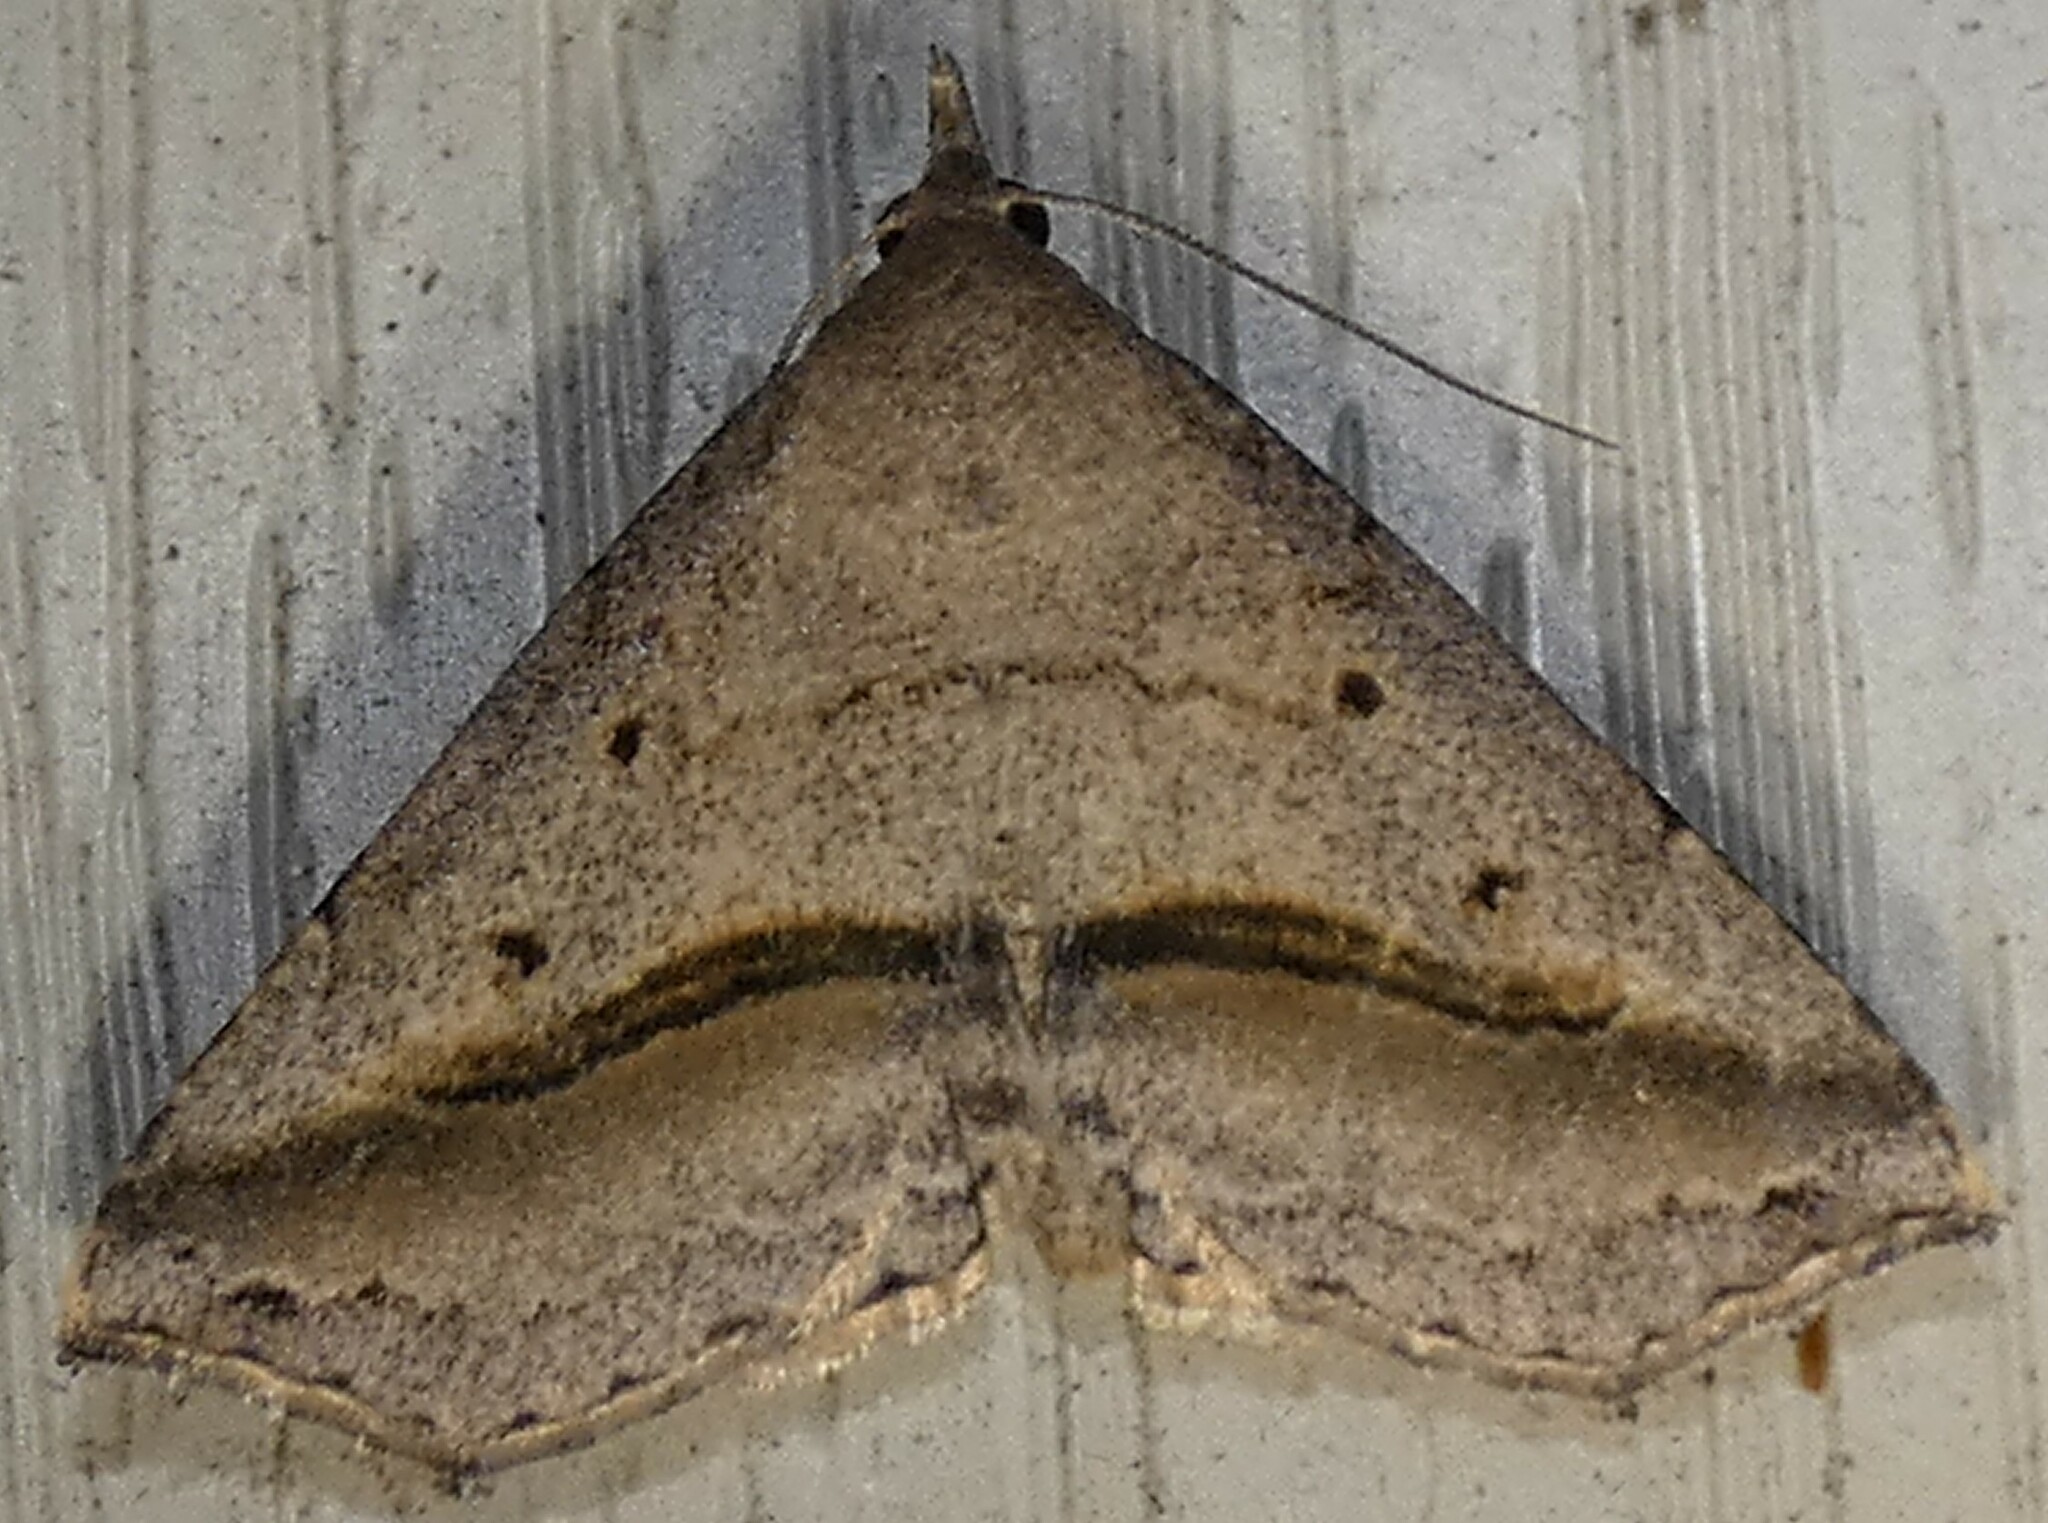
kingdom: Animalia
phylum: Arthropoda
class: Insecta
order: Lepidoptera
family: Erebidae
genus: Spargaloma
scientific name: Spargaloma perditalis
